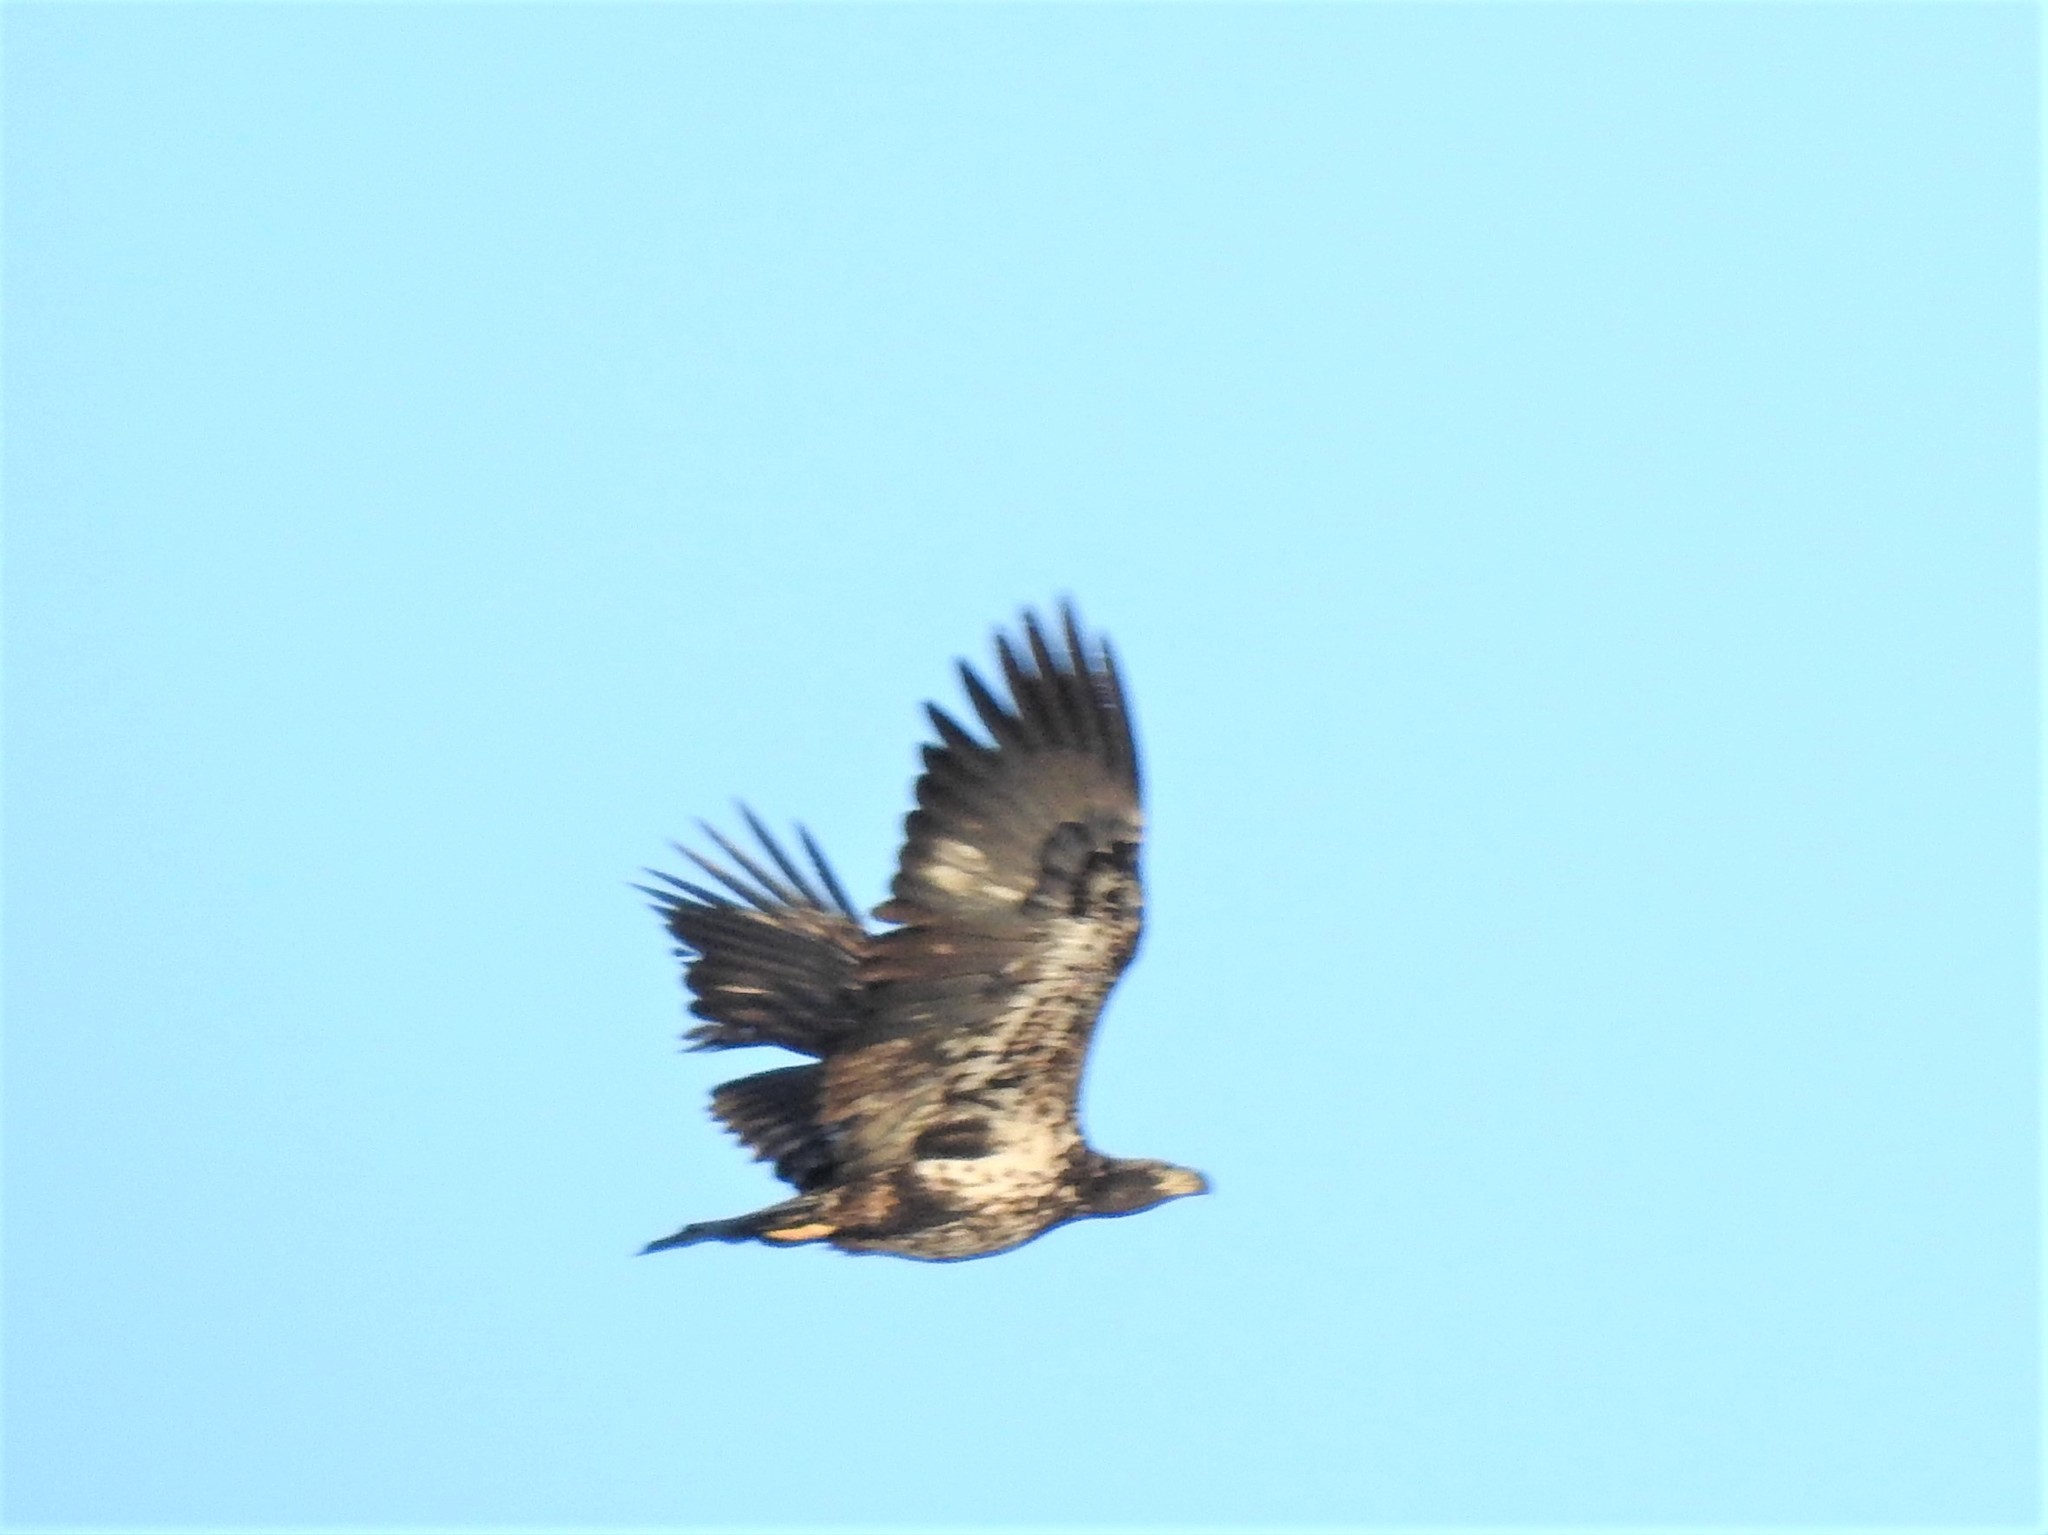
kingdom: Animalia
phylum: Chordata
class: Aves
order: Accipitriformes
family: Accipitridae
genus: Haliaeetus
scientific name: Haliaeetus leucocephalus
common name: Bald eagle
